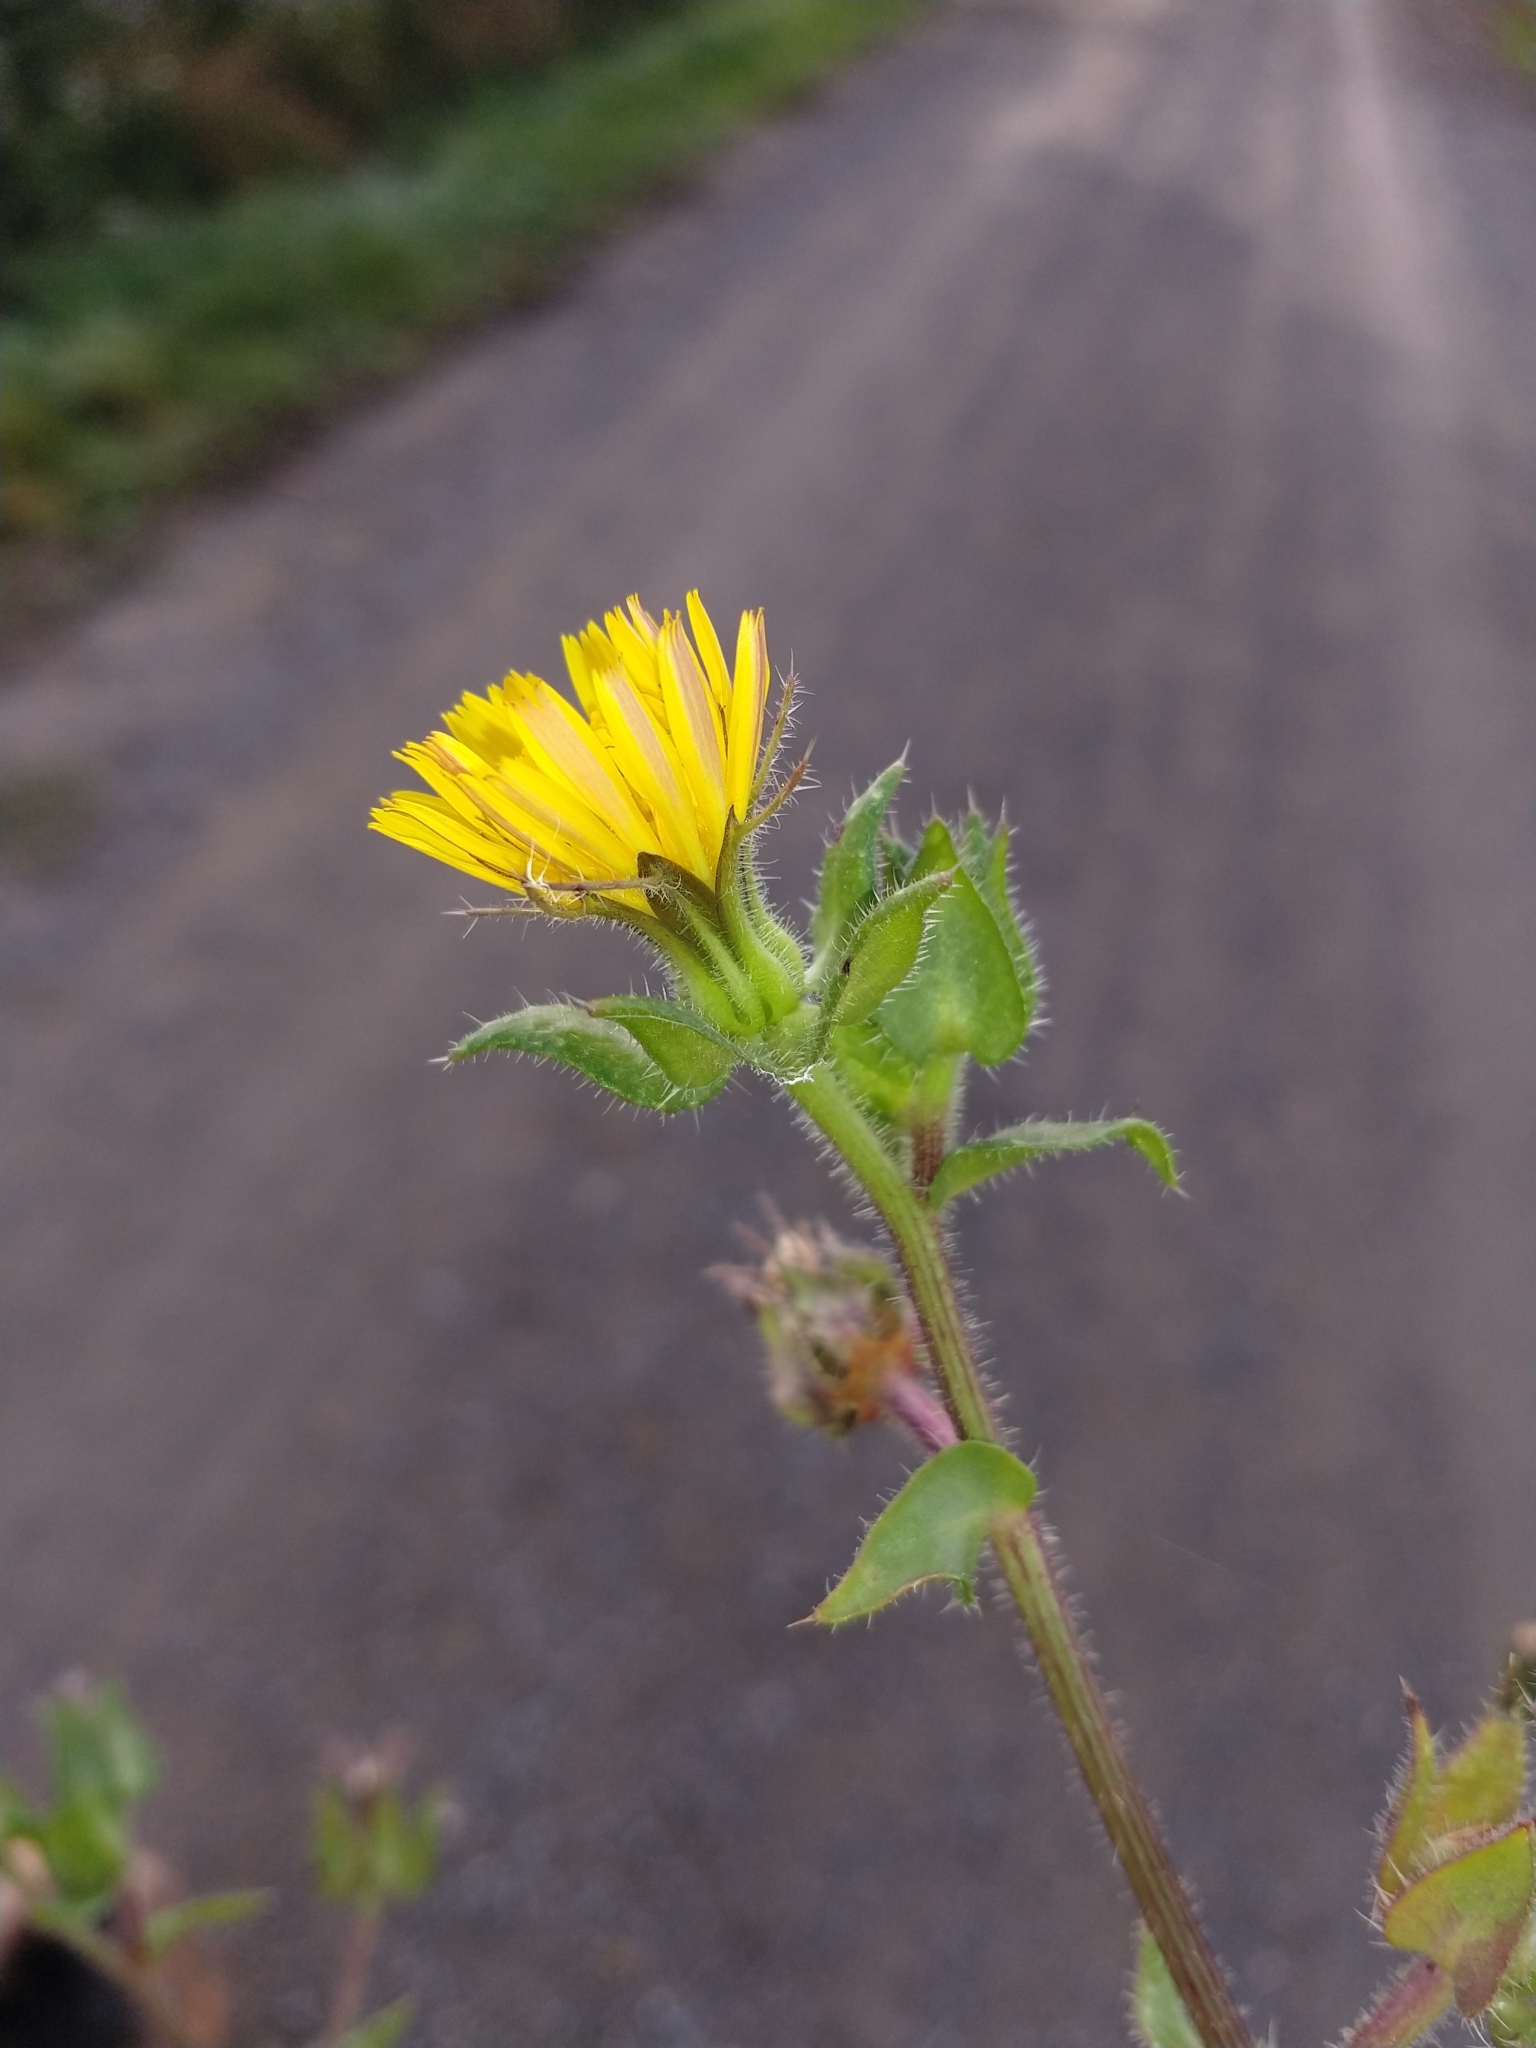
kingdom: Plantae
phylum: Tracheophyta
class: Magnoliopsida
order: Asterales
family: Asteraceae
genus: Helminthotheca
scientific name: Helminthotheca echioides
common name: Ox-tongue
